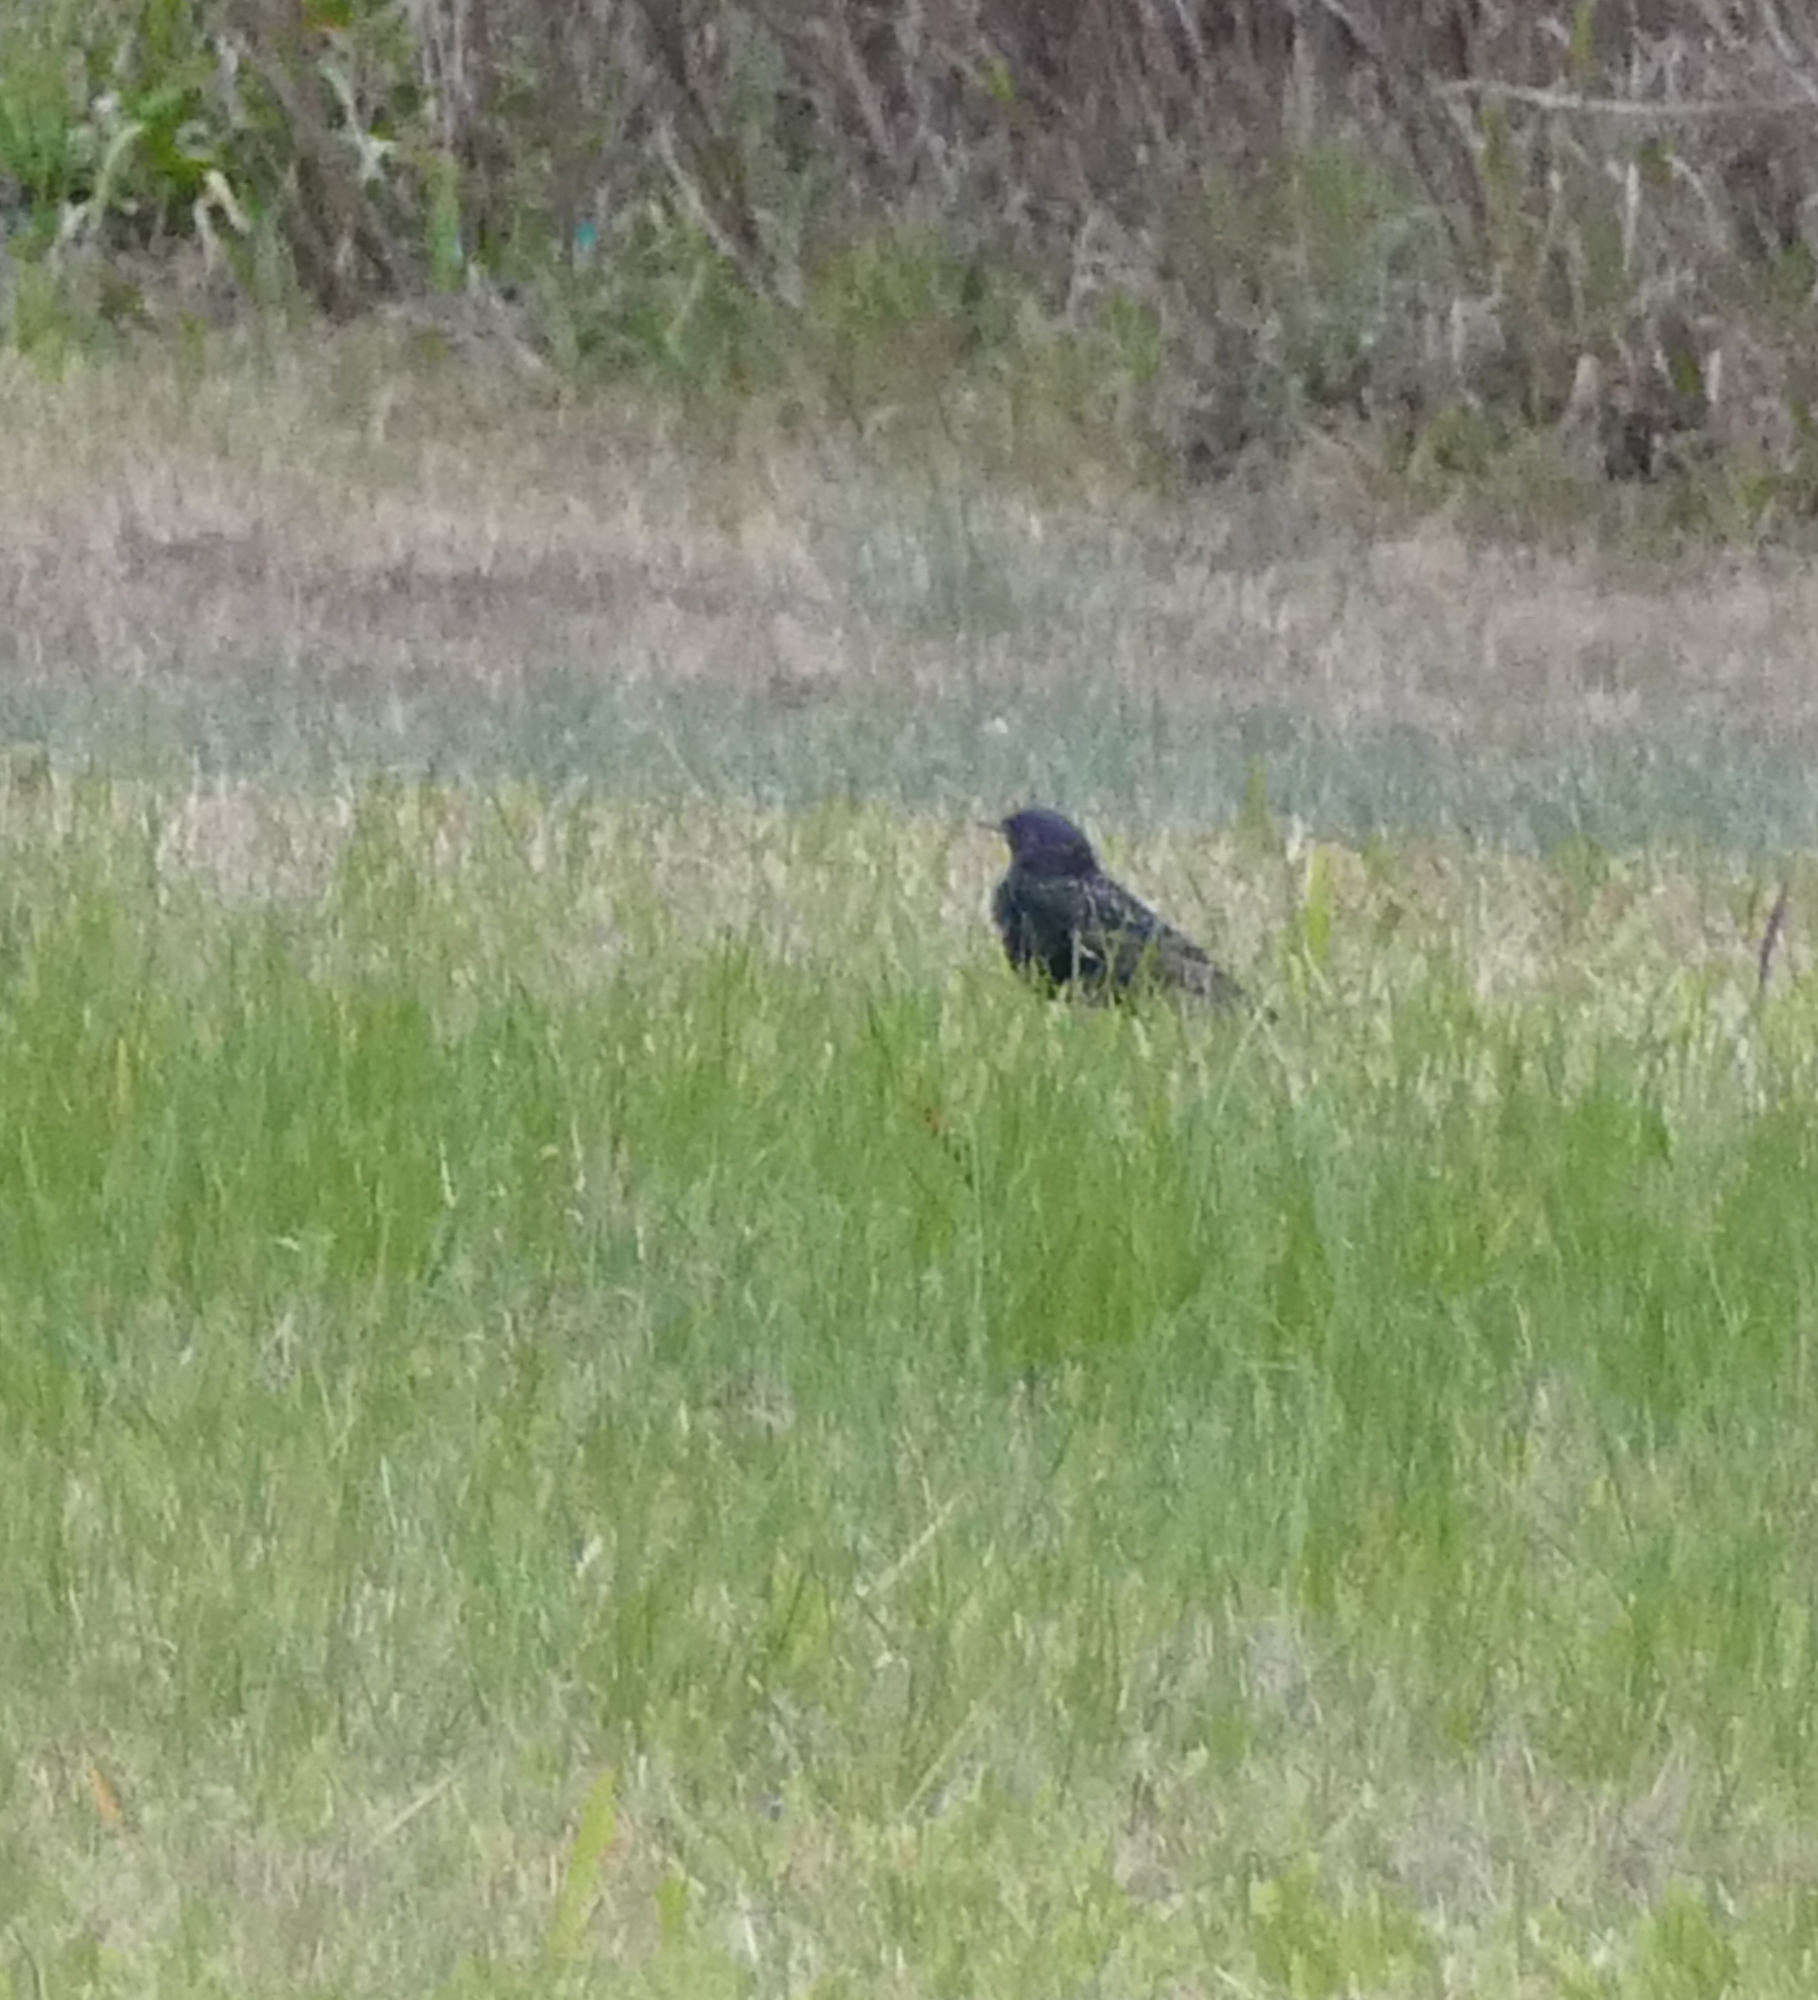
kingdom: Animalia
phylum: Chordata
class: Aves
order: Passeriformes
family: Sturnidae
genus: Sturnus
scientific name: Sturnus vulgaris
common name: Common starling
